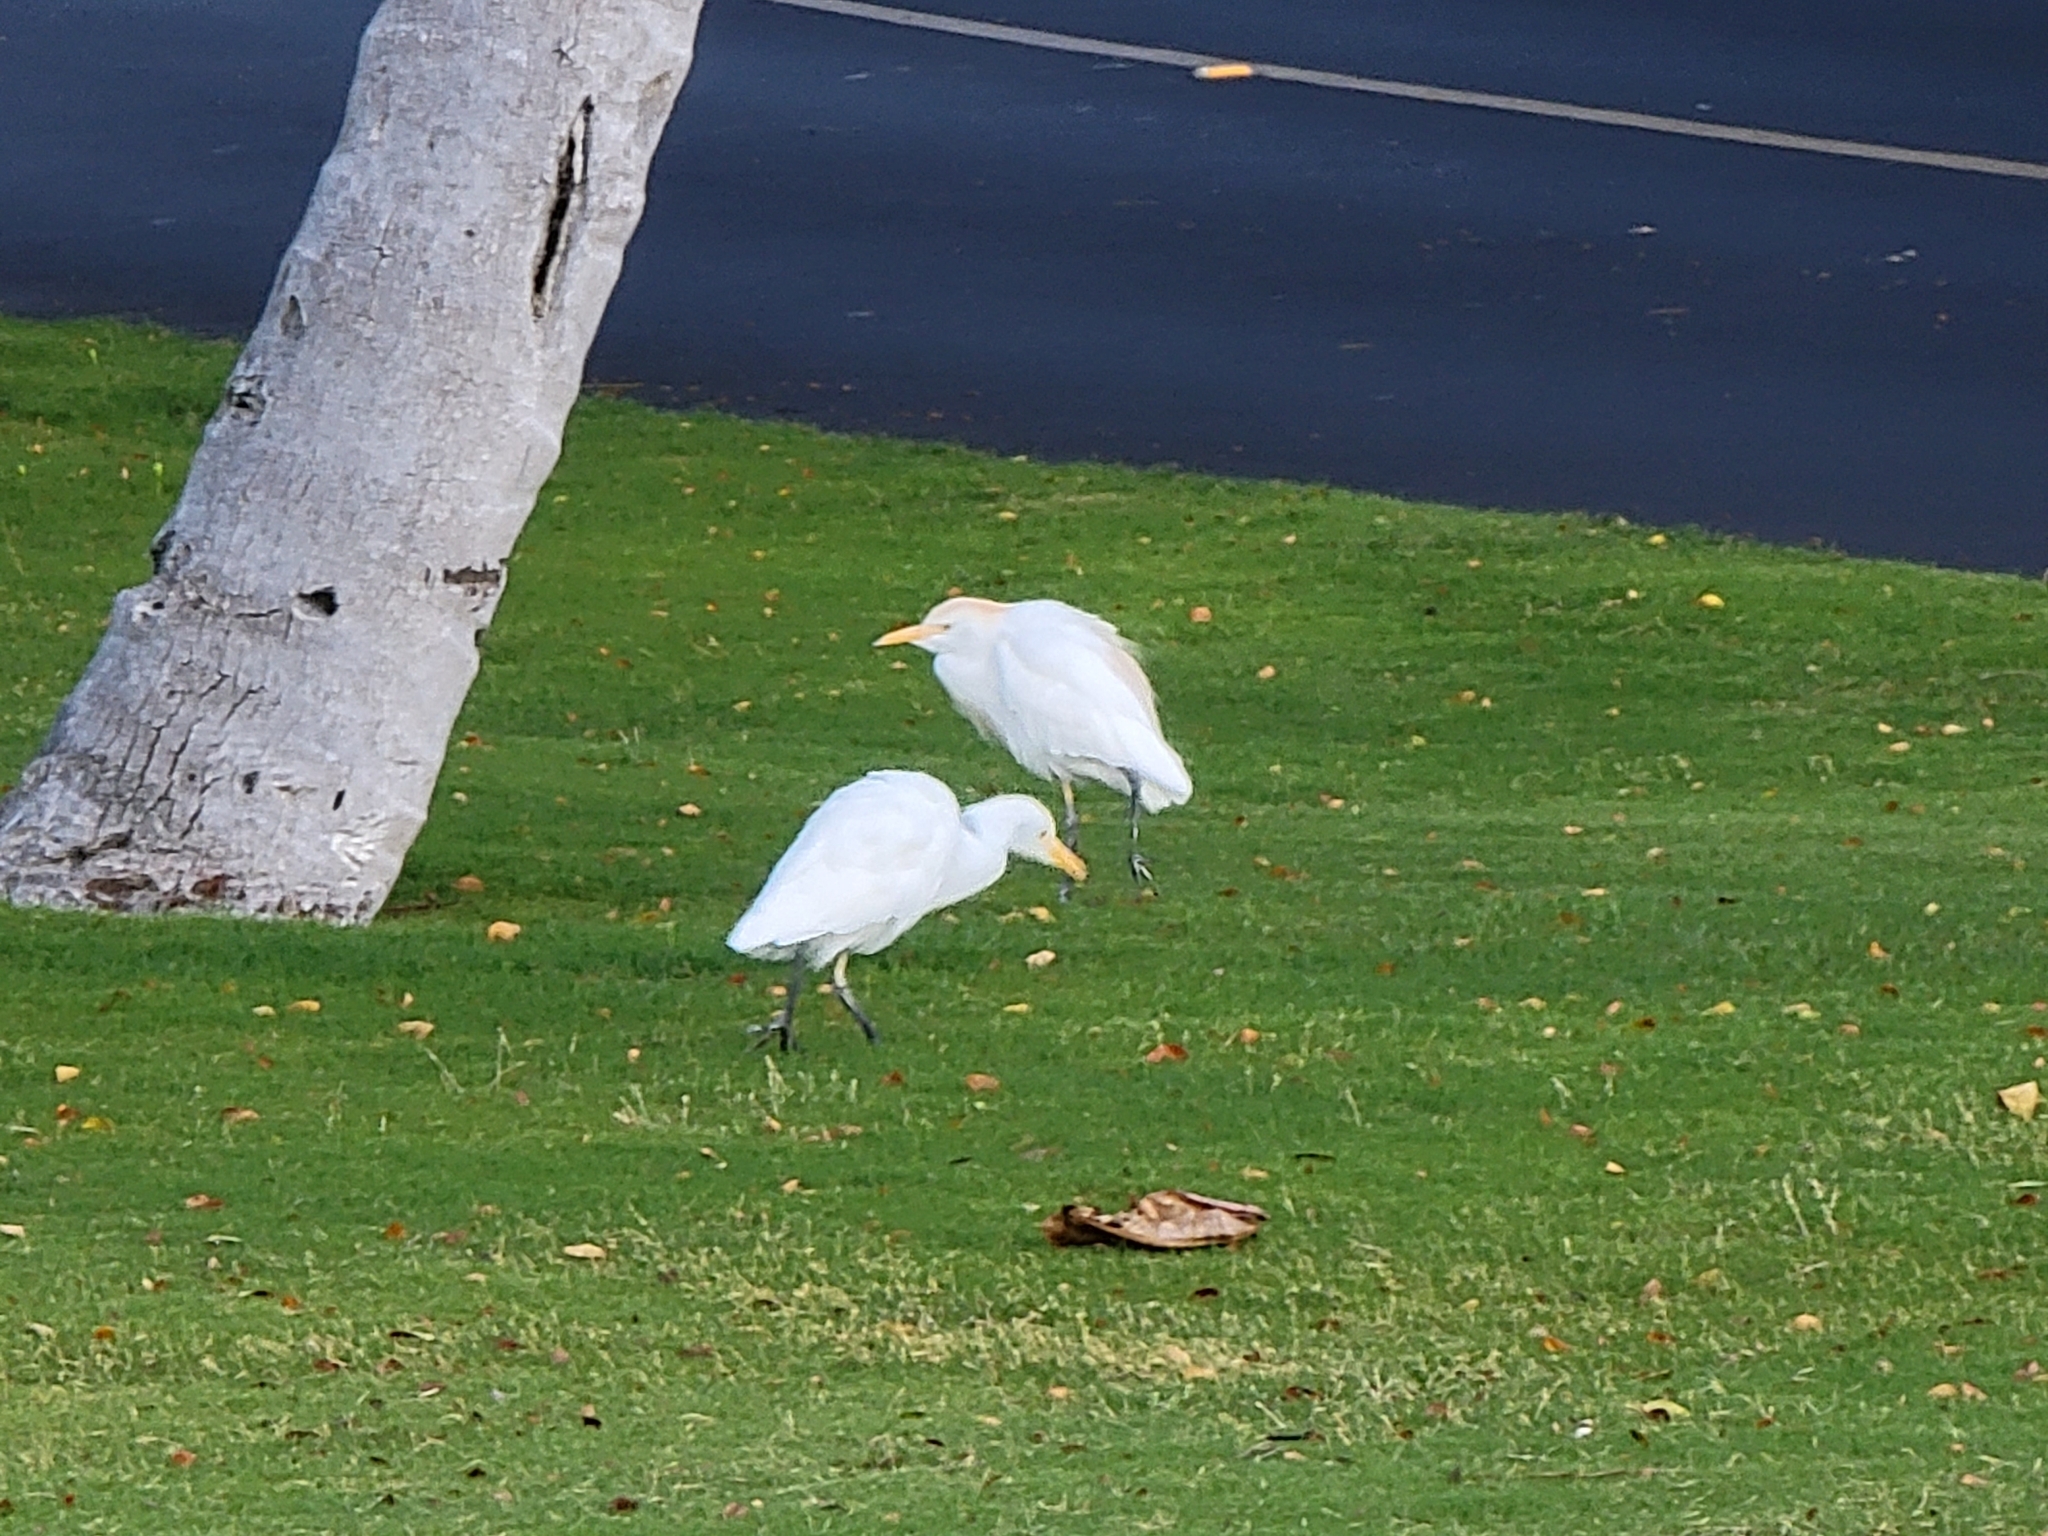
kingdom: Animalia
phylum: Chordata
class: Aves
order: Pelecaniformes
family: Ardeidae
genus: Bubulcus
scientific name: Bubulcus ibis
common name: Cattle egret
